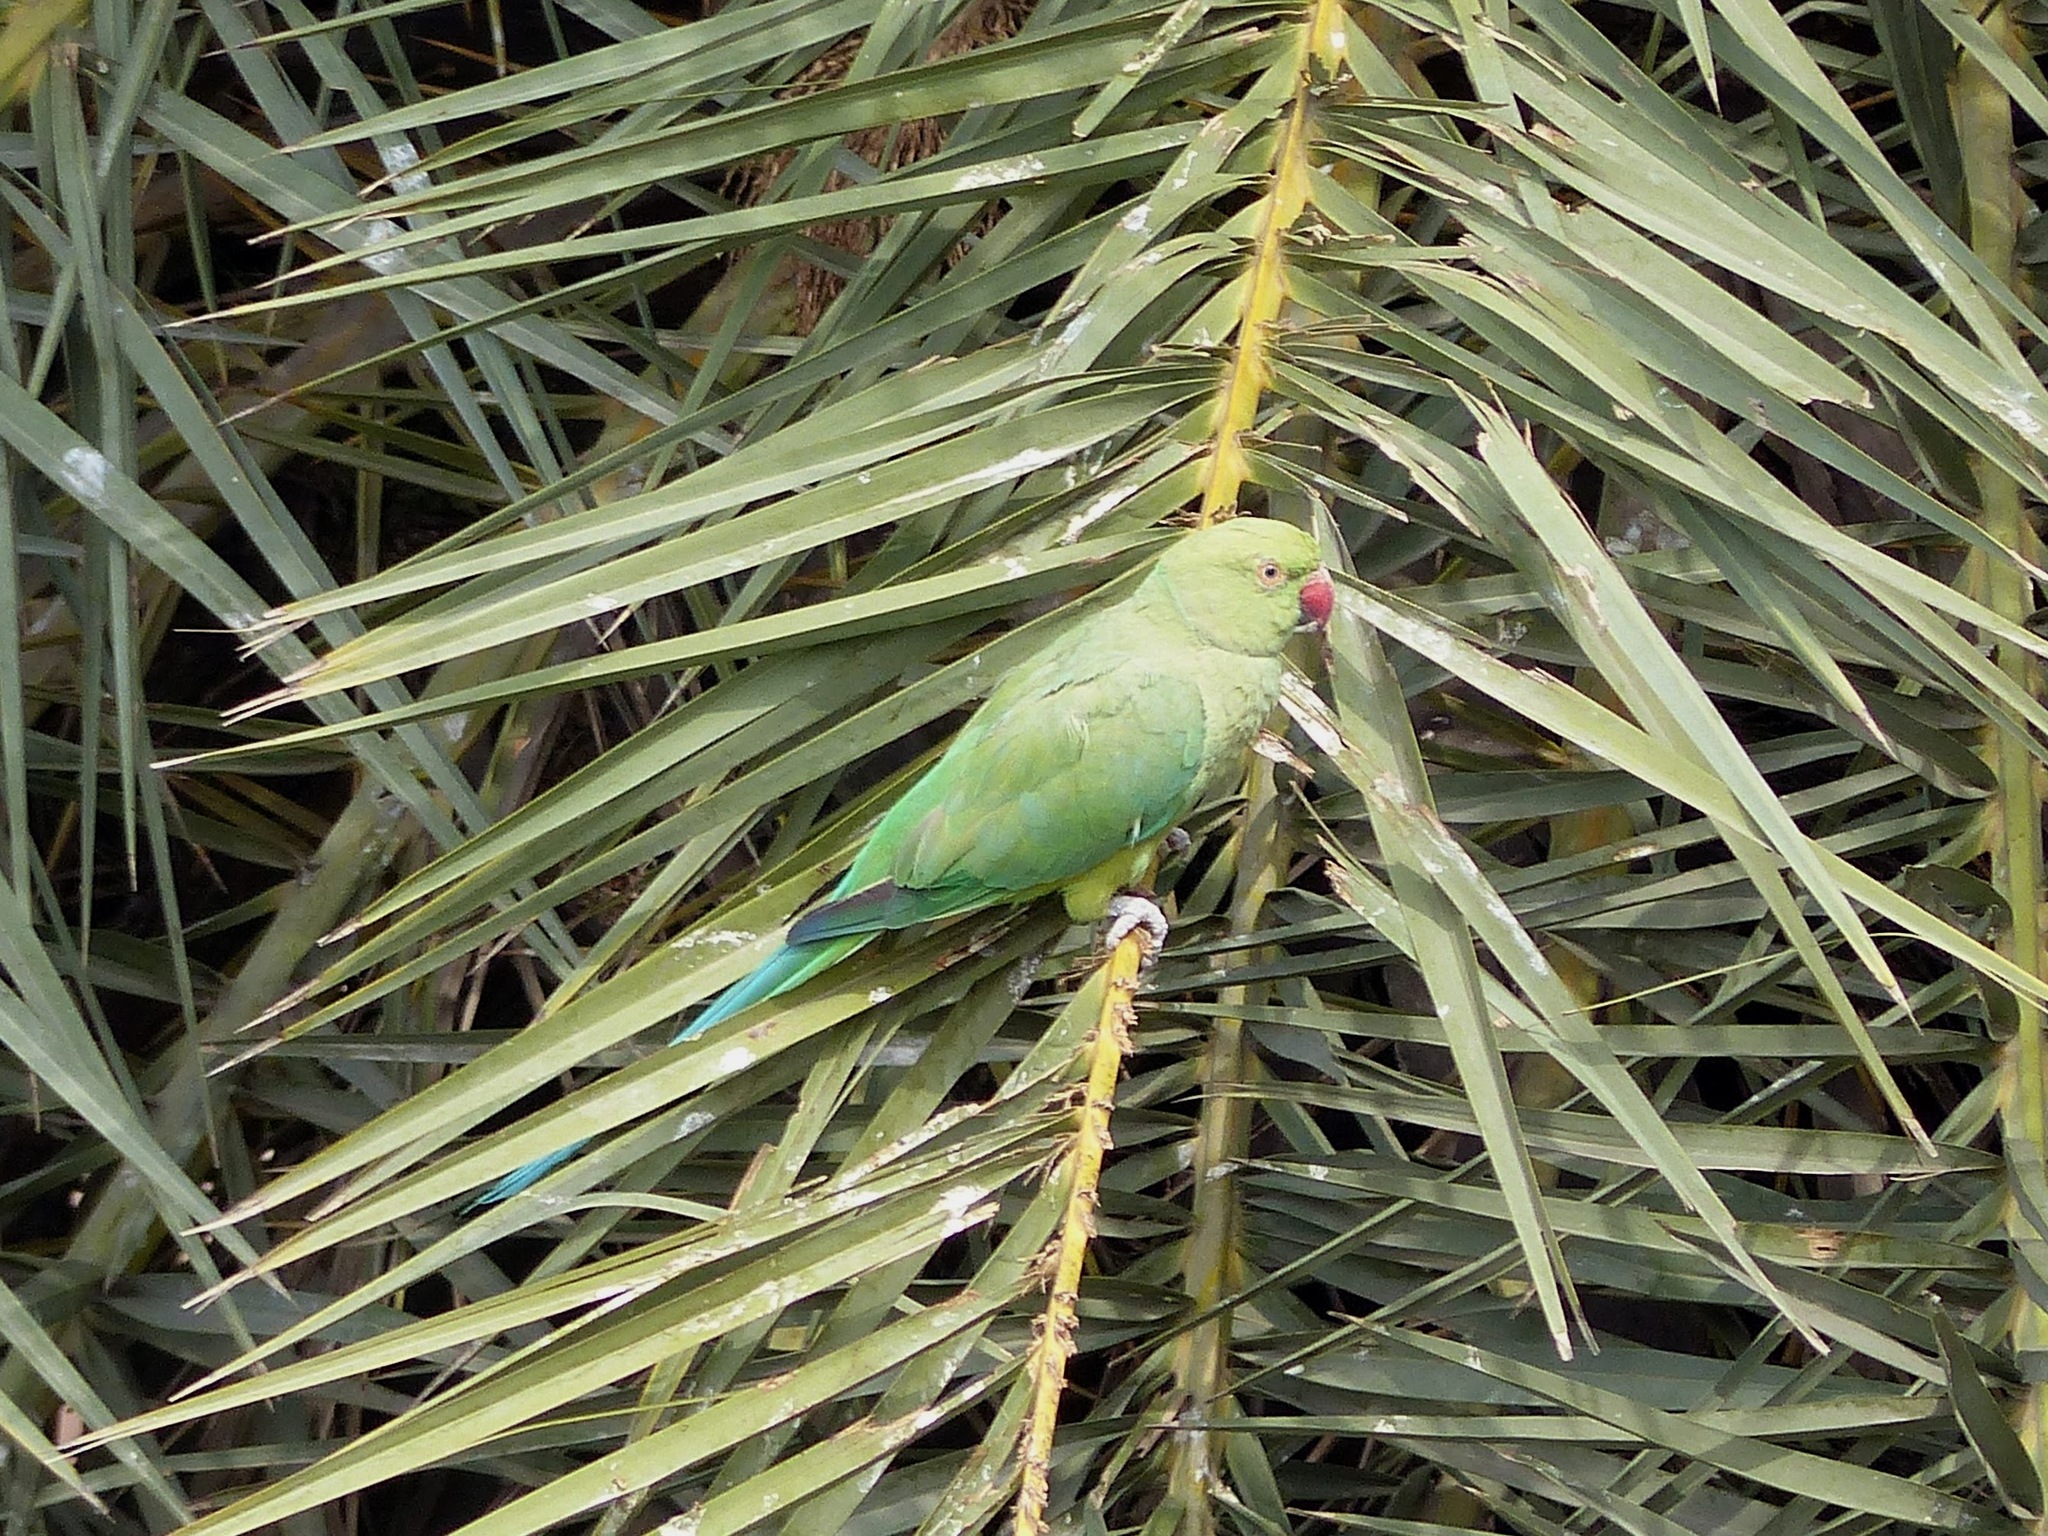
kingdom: Animalia
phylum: Chordata
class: Aves
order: Psittaciformes
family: Psittacidae
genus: Psittacula
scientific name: Psittacula krameri
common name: Rose-ringed parakeet
